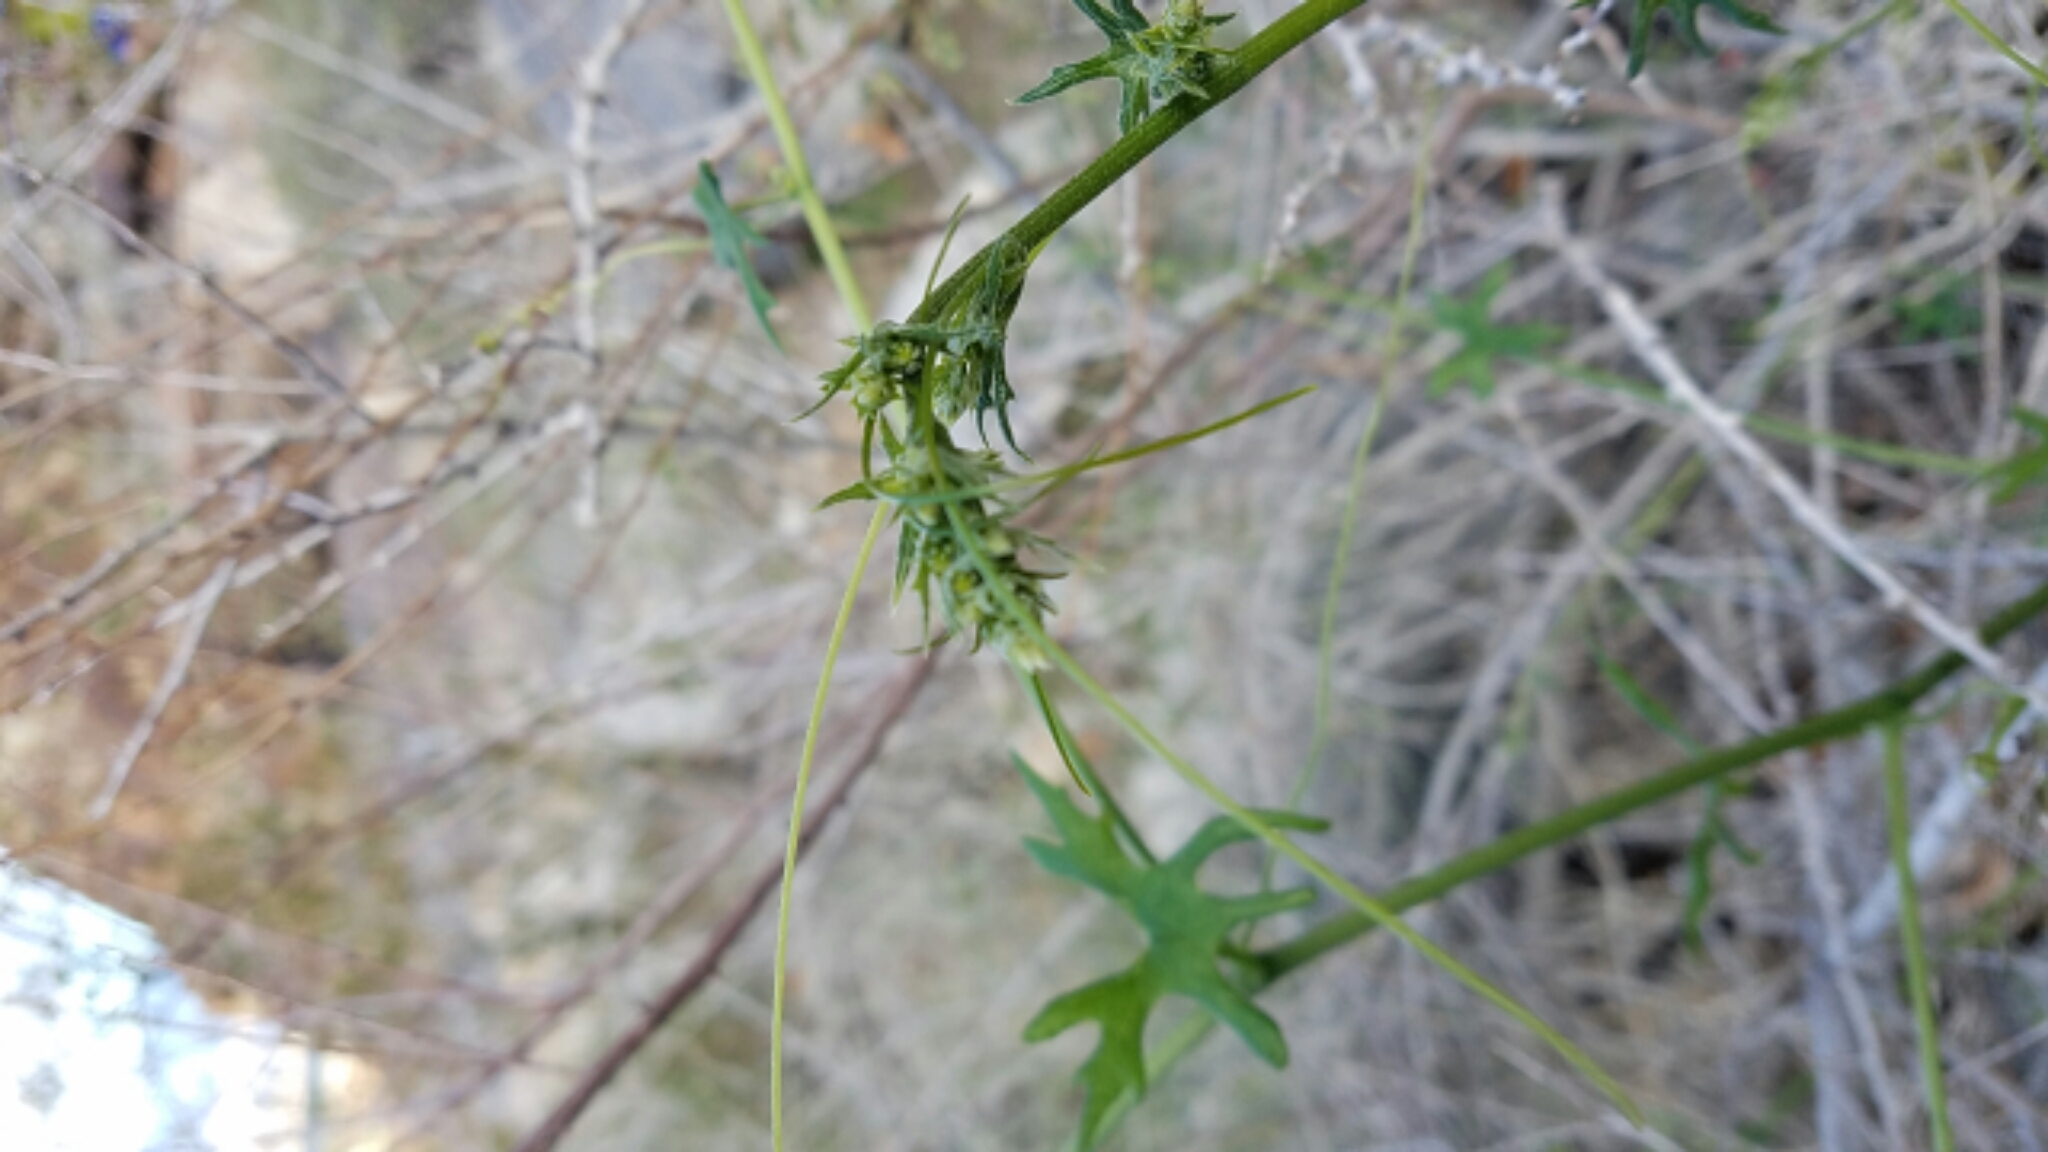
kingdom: Plantae
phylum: Tracheophyta
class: Magnoliopsida
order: Cucurbitales
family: Cucurbitaceae
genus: Marah
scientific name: Marah macrocarpa
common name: Cucamonga manroot
